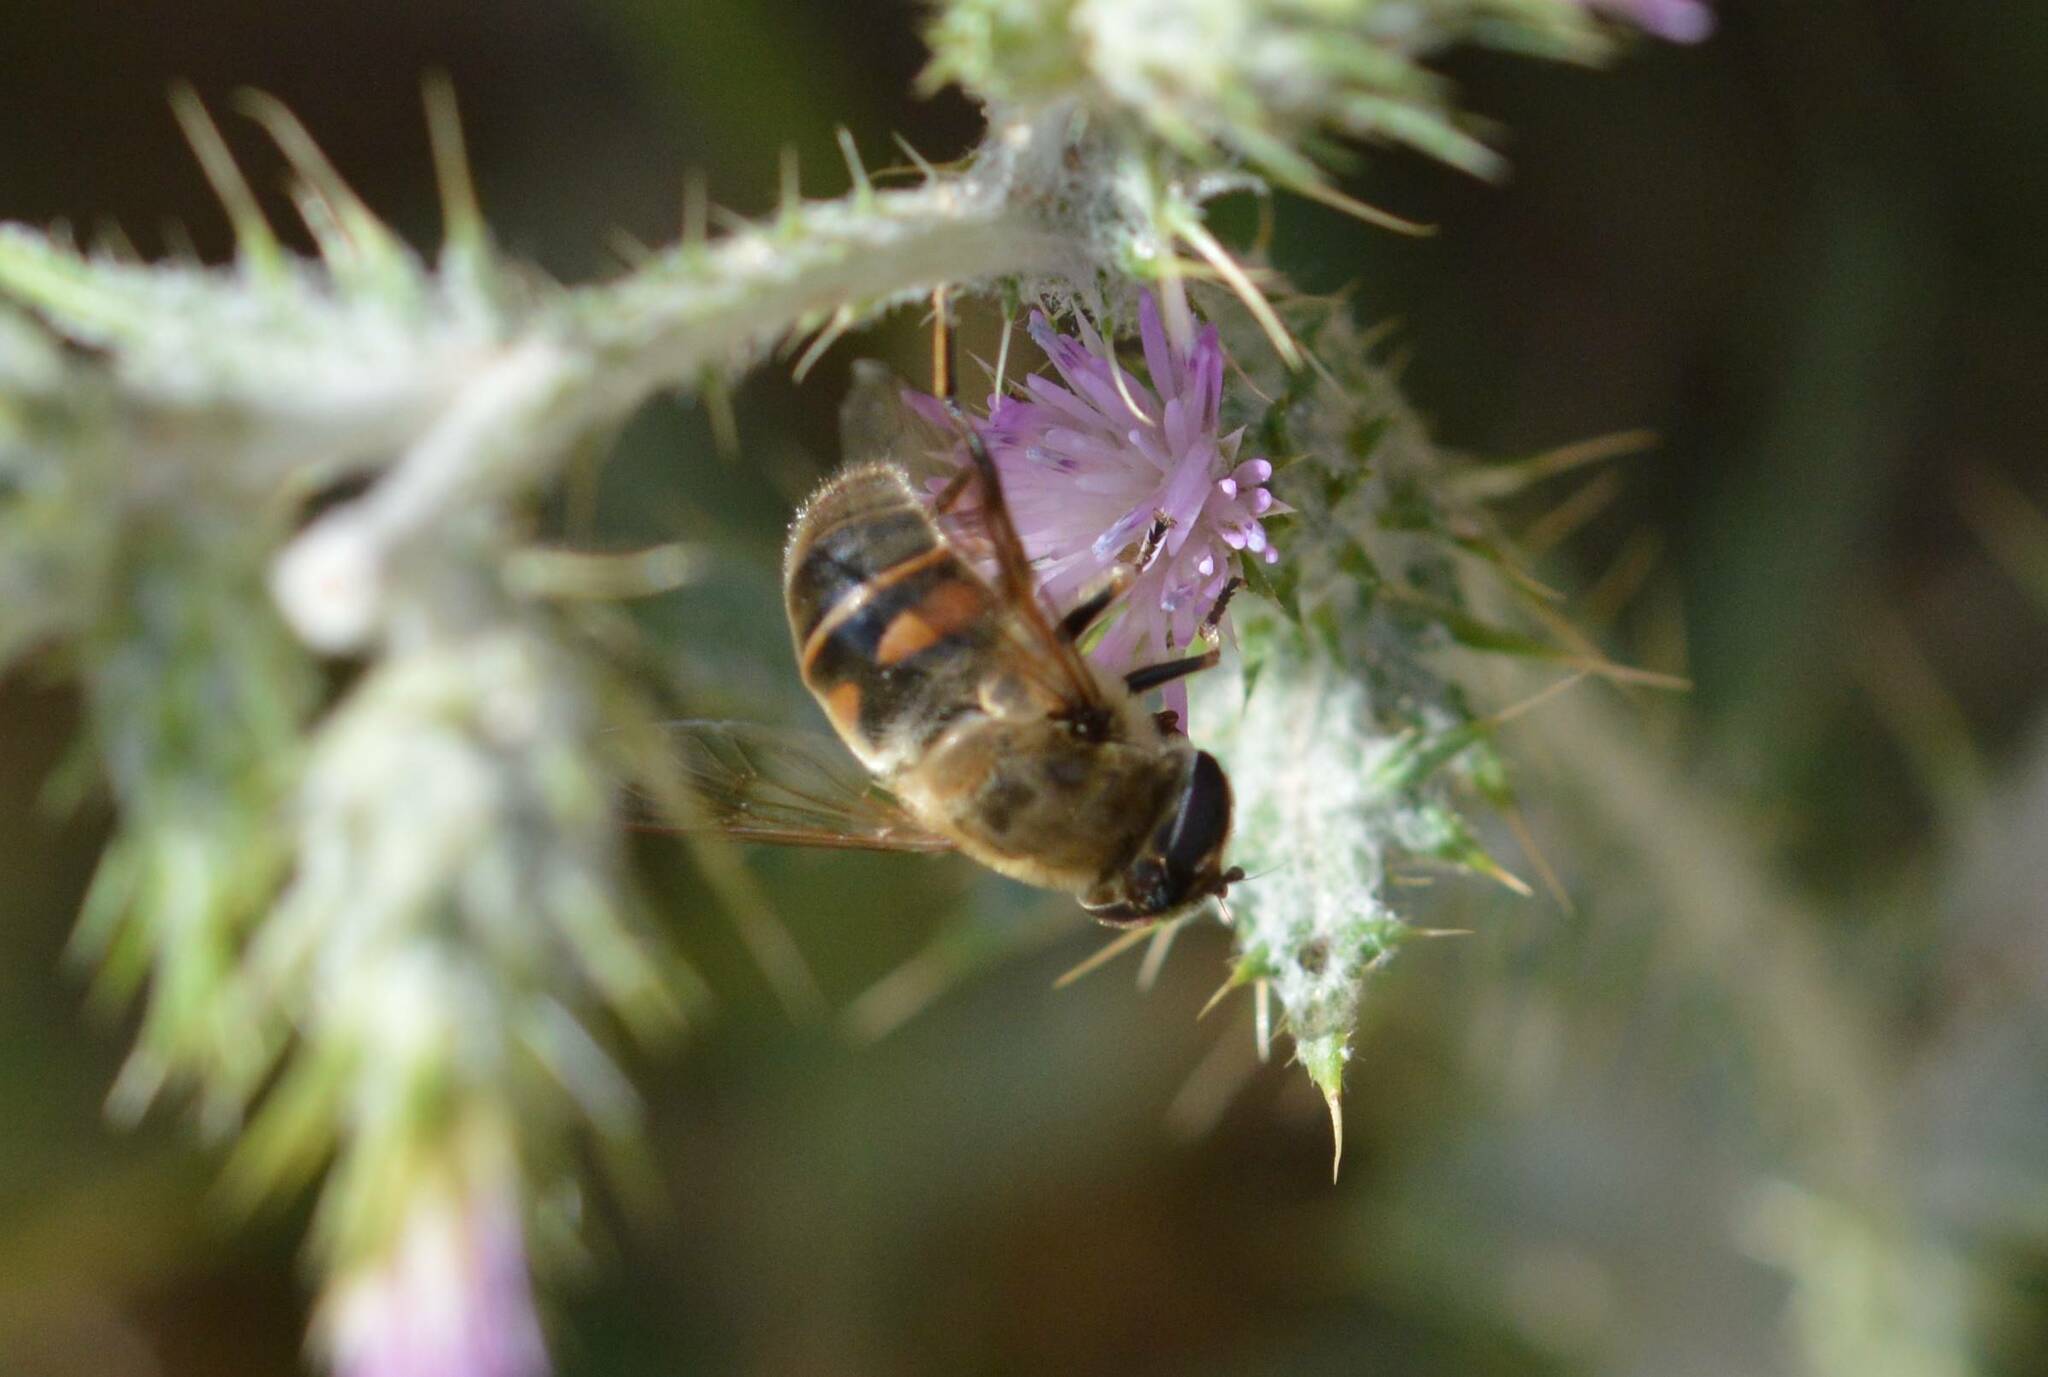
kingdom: Animalia
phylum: Arthropoda
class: Insecta
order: Diptera
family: Syrphidae
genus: Eristalis
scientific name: Eristalis tenax
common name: Drone fly
